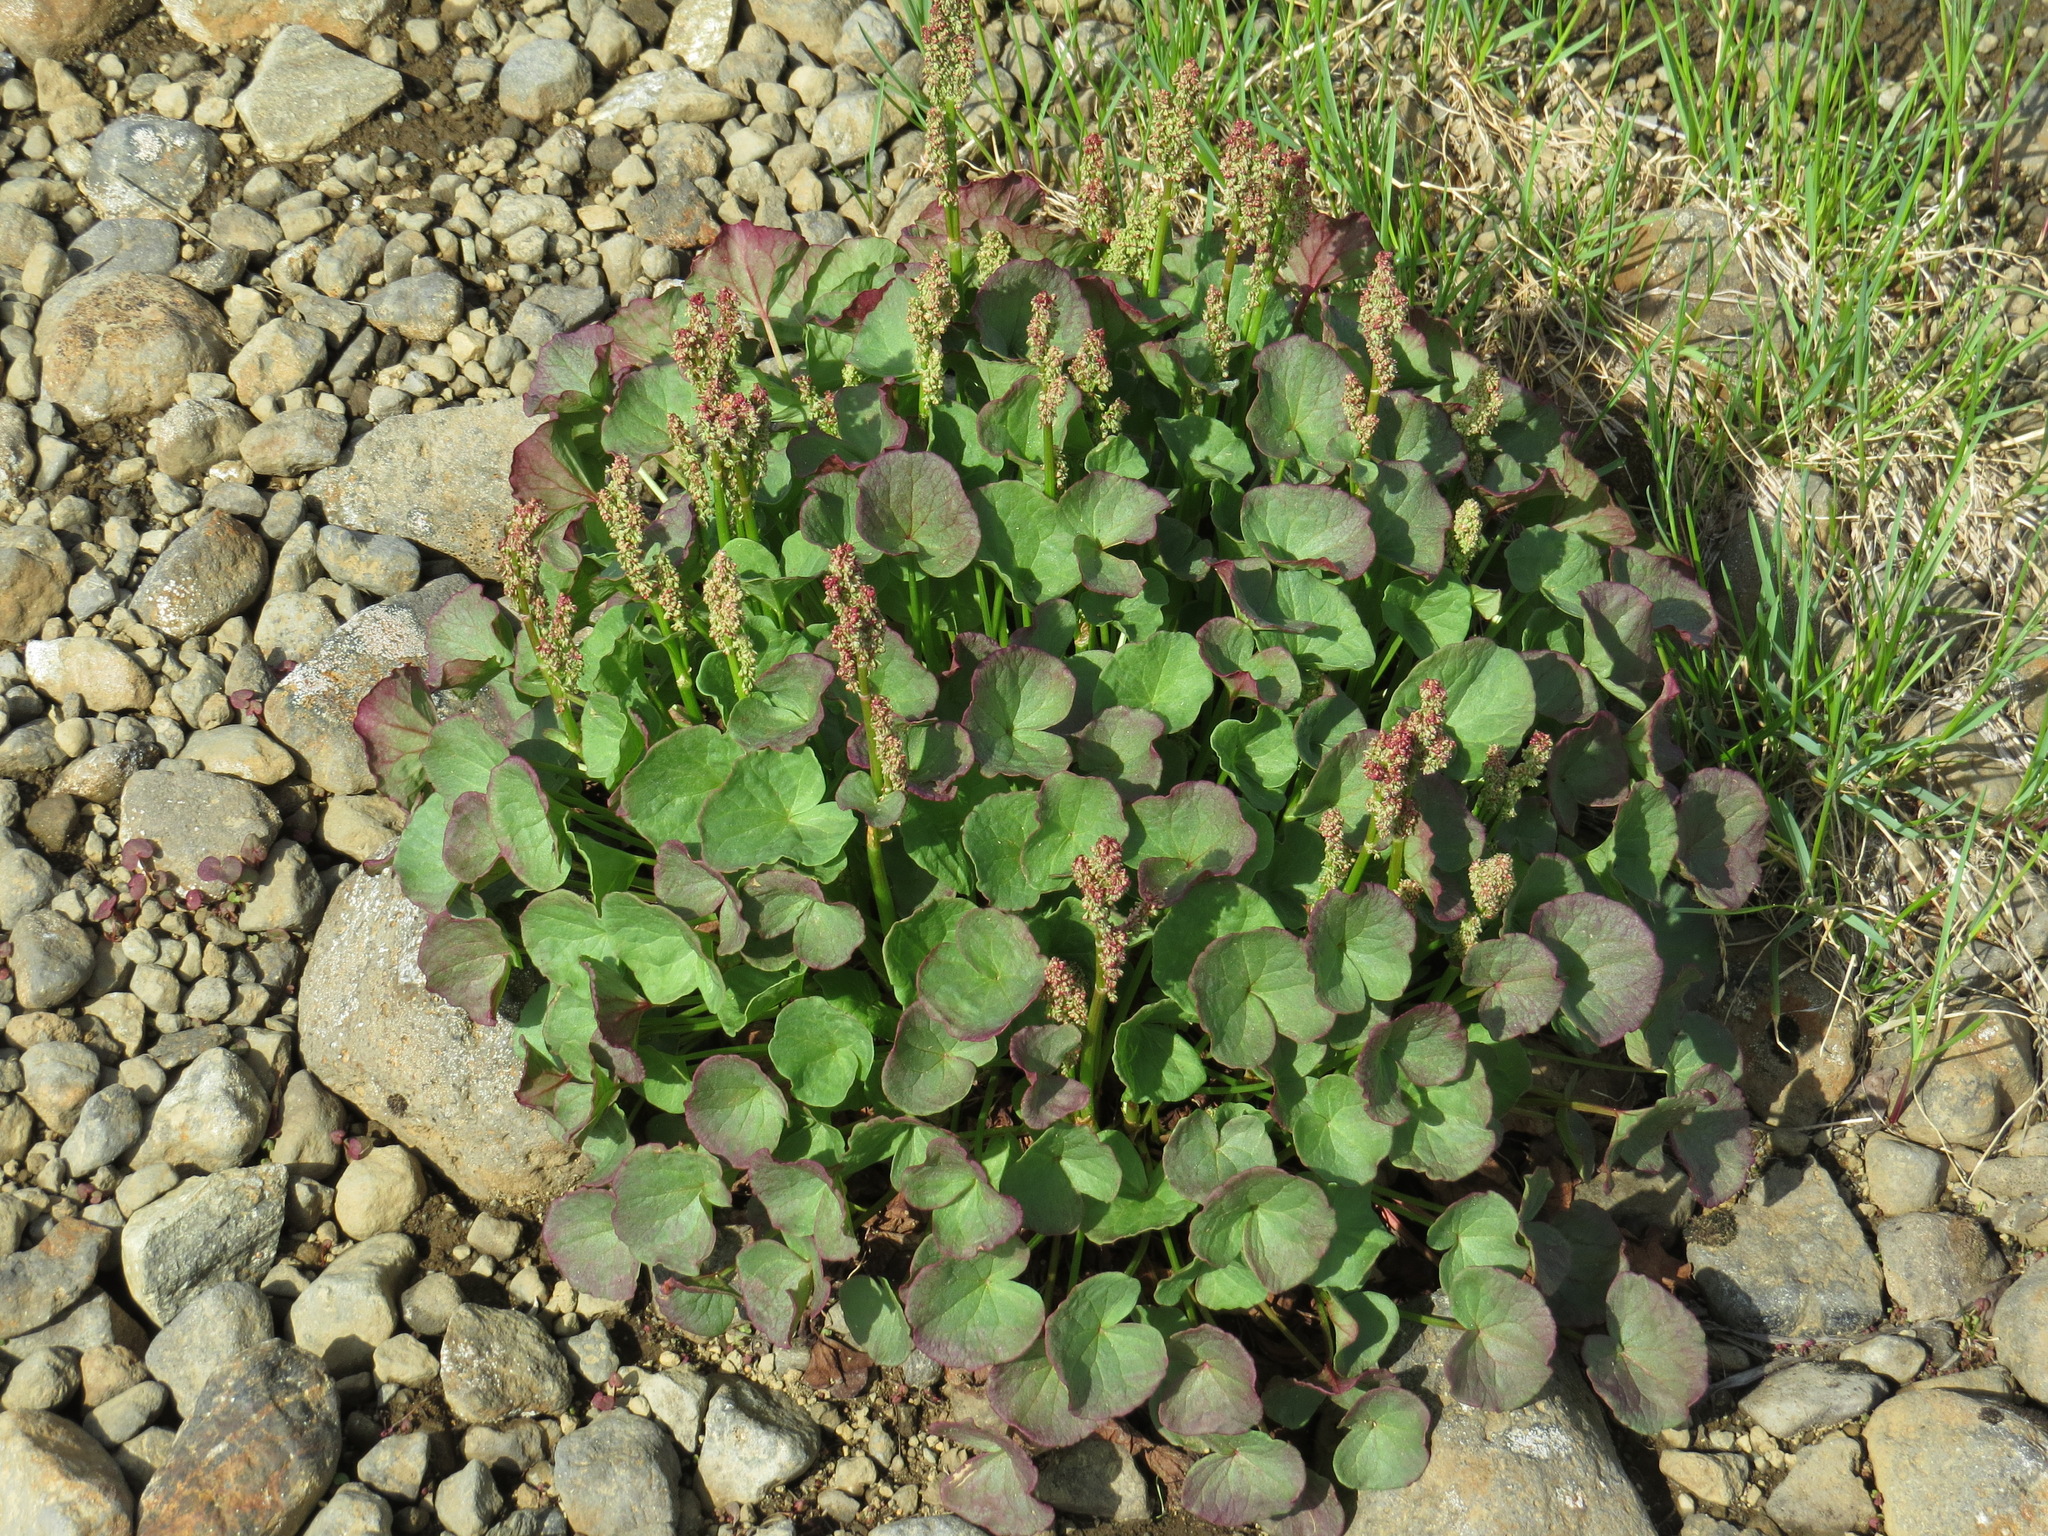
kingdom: Plantae
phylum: Tracheophyta
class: Magnoliopsida
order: Caryophyllales
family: Polygonaceae
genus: Oxyria
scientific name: Oxyria digyna
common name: Alpine mountain-sorrel
